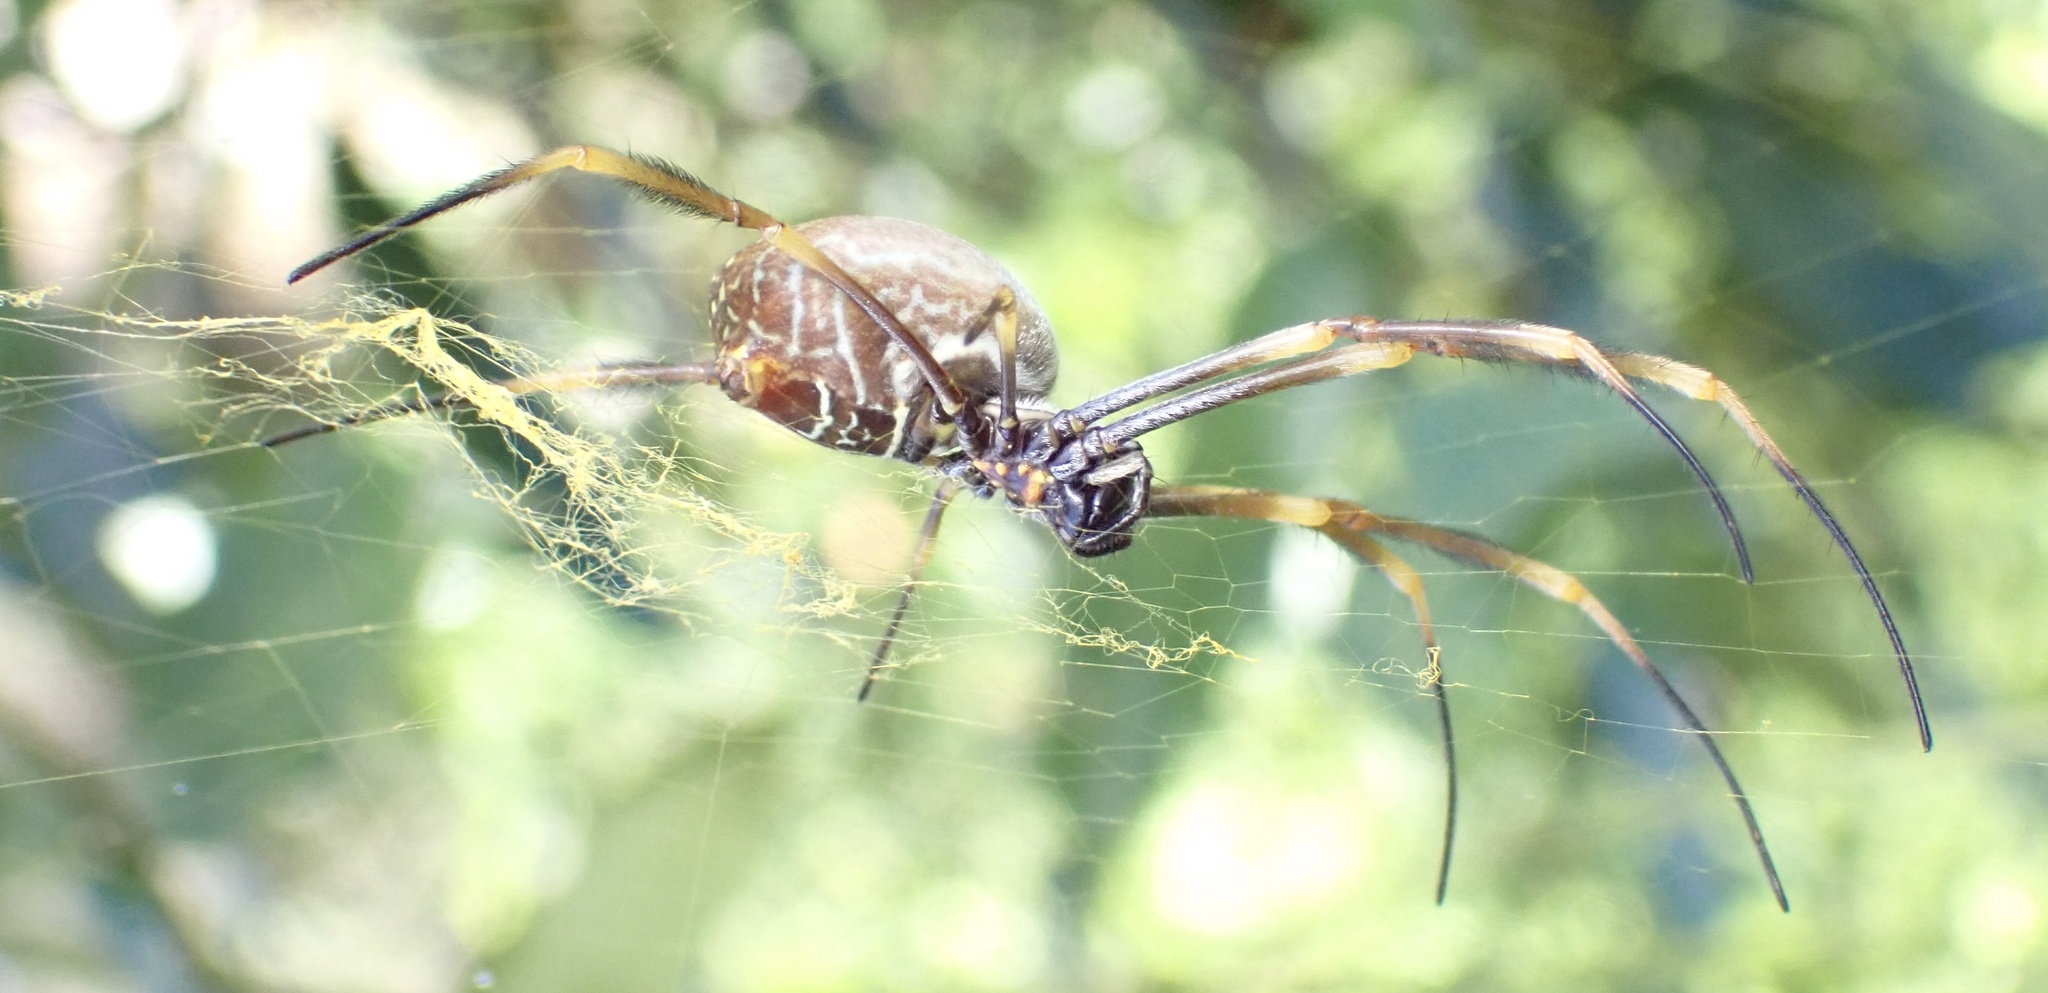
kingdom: Animalia
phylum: Arthropoda
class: Arachnida
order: Araneae
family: Araneidae
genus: Trichonephila
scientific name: Trichonephila plumipes
